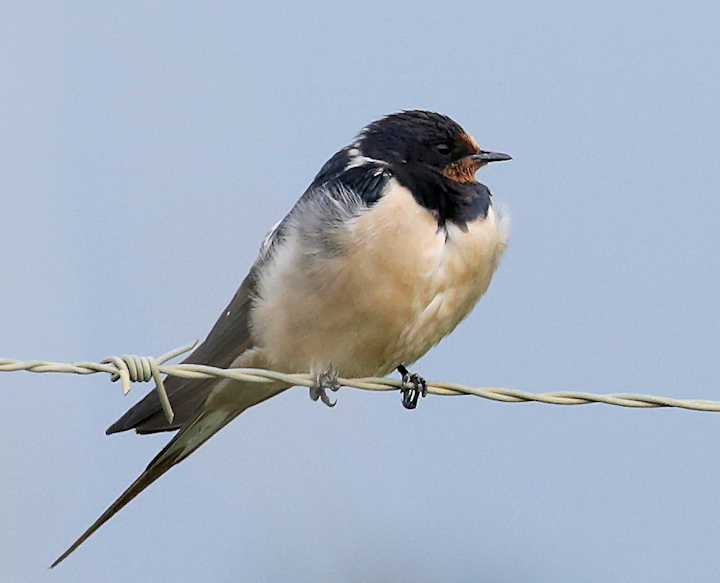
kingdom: Animalia
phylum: Chordata
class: Aves
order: Passeriformes
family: Hirundinidae
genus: Hirundo
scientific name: Hirundo rustica
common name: Barn swallow
